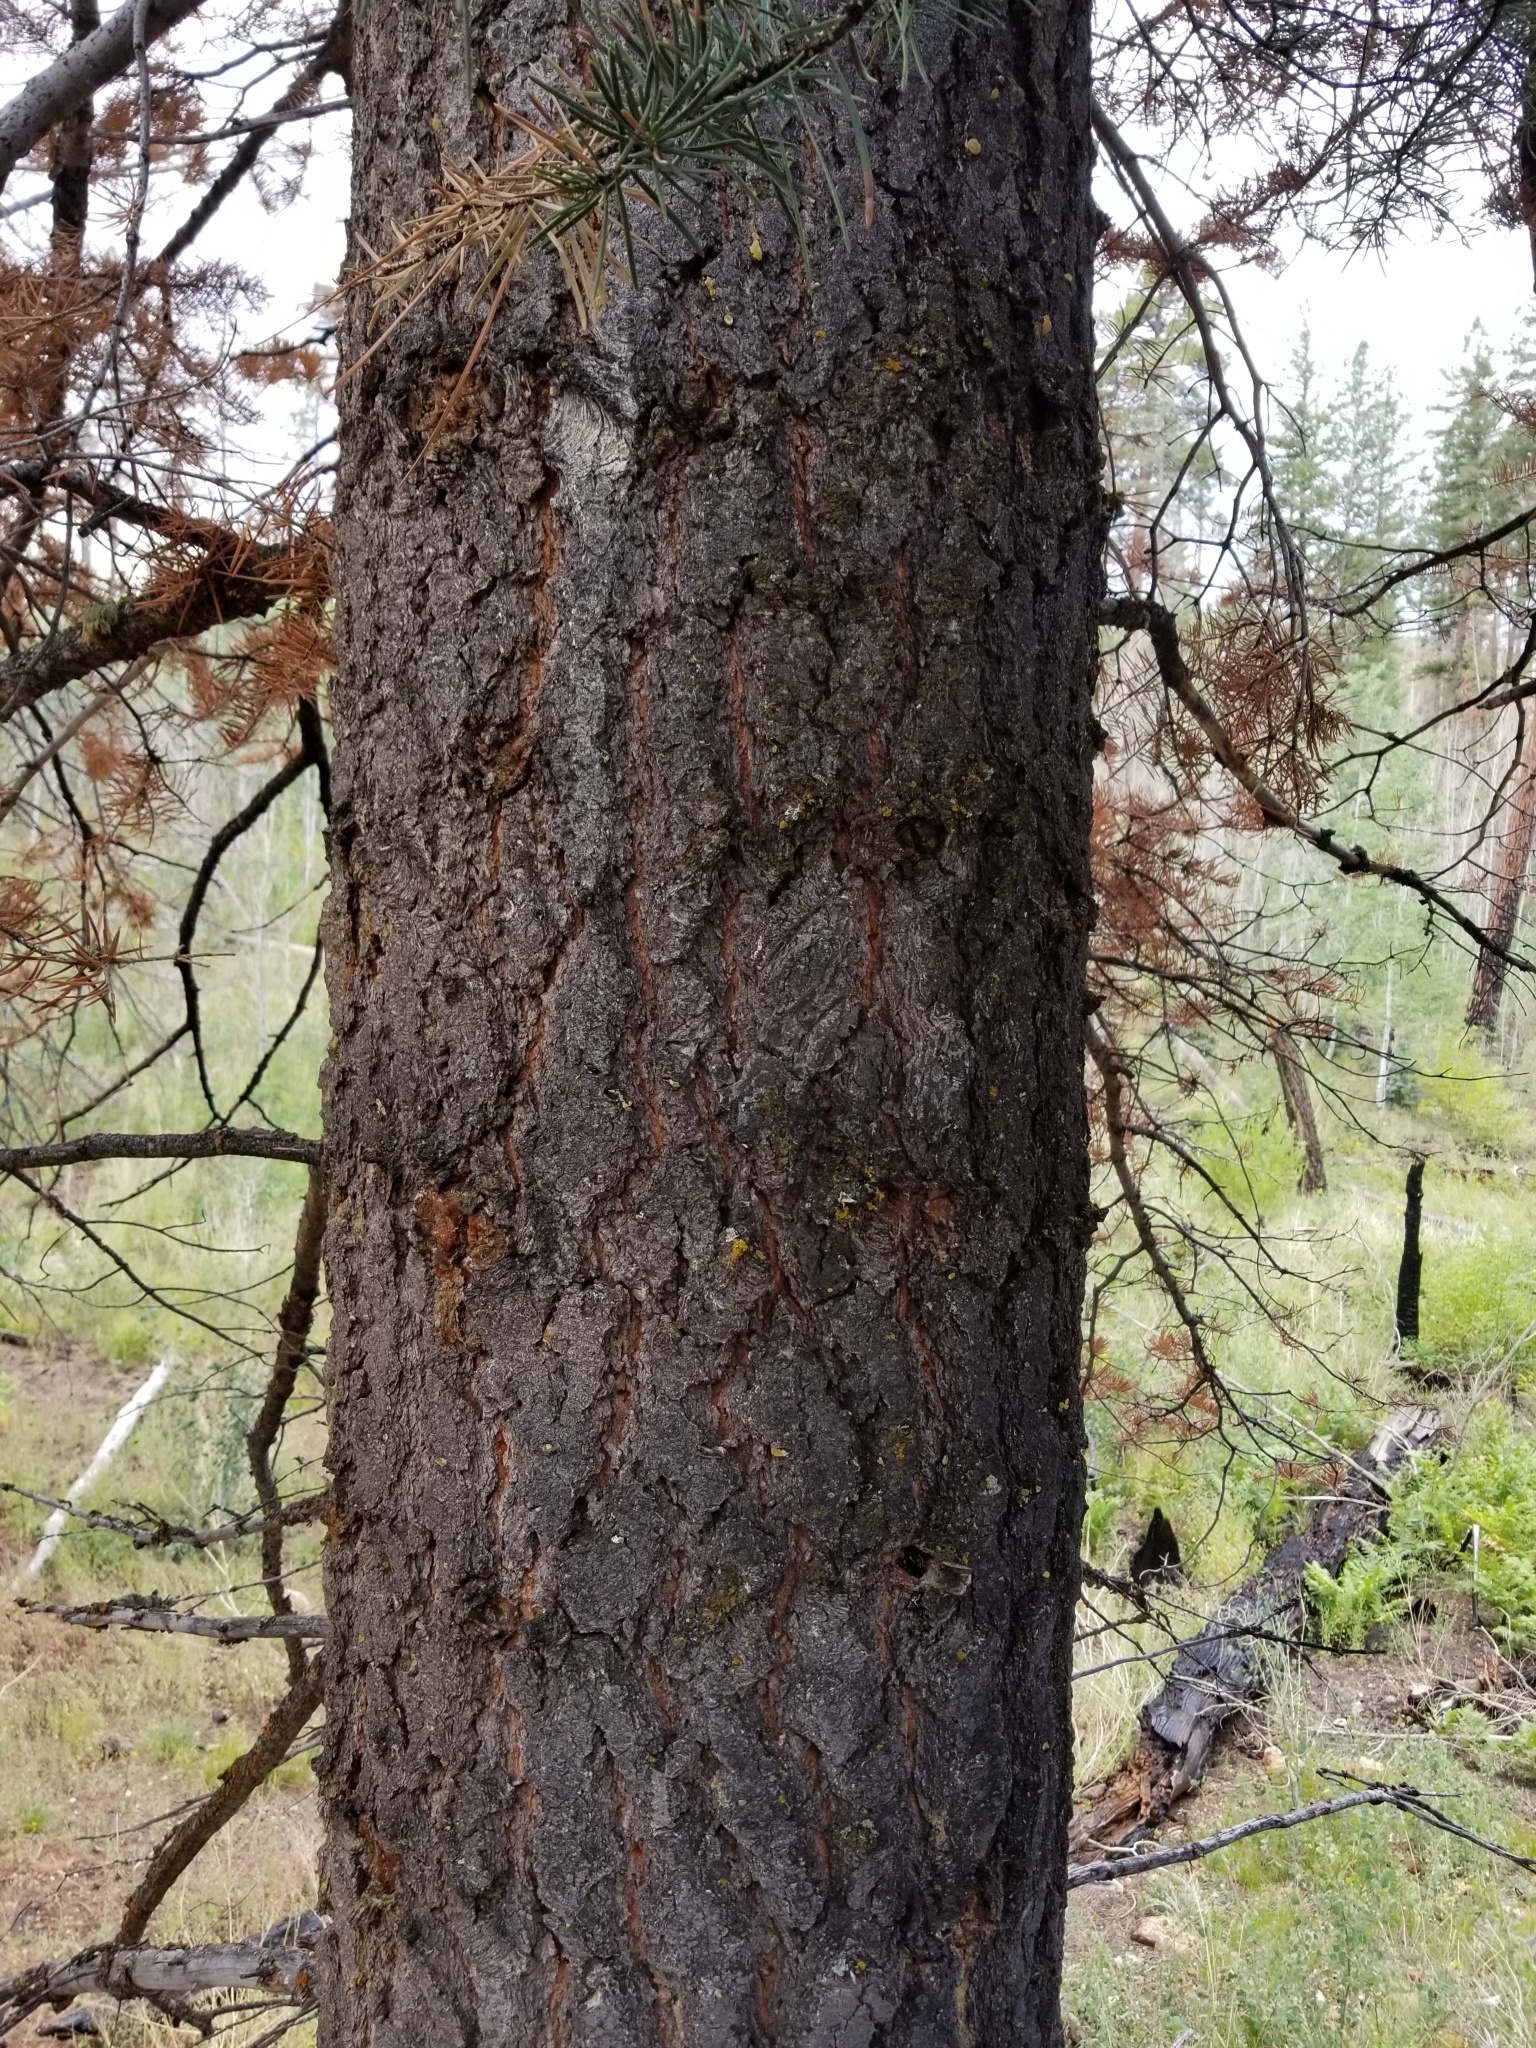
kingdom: Plantae
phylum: Tracheophyta
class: Pinopsida
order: Pinales
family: Pinaceae
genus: Abies
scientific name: Abies concolor
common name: Colorado fir
